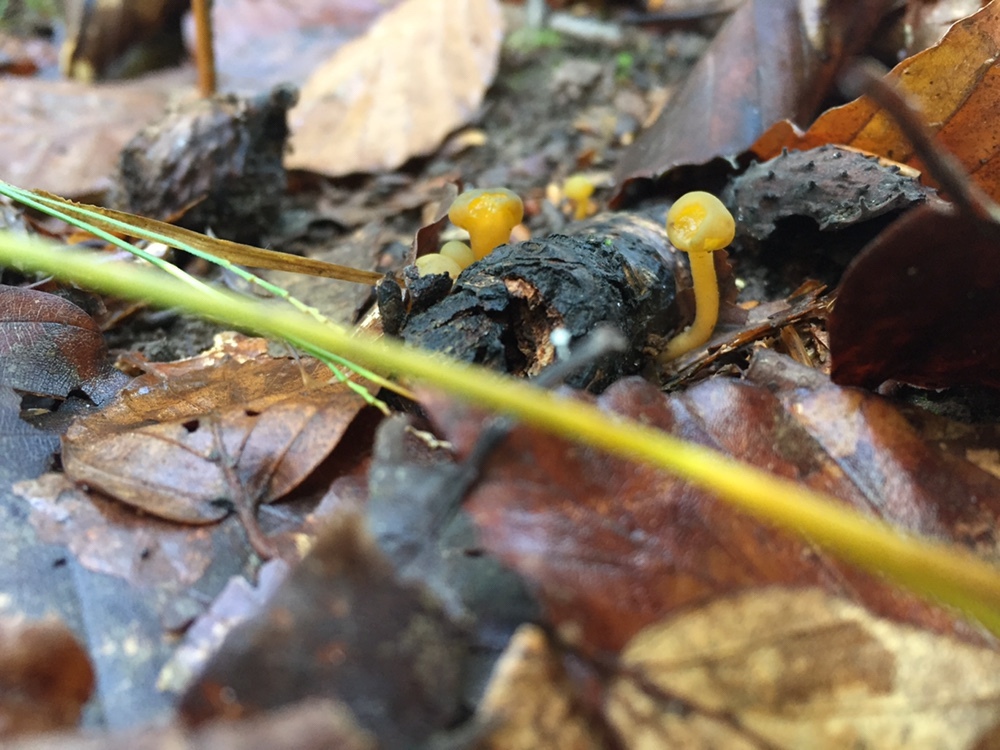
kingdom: Fungi
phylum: Ascomycota
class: Leotiomycetes
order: Leotiales
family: Leotiaceae
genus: Leotia
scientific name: Leotia lubrica
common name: Jellybaby
